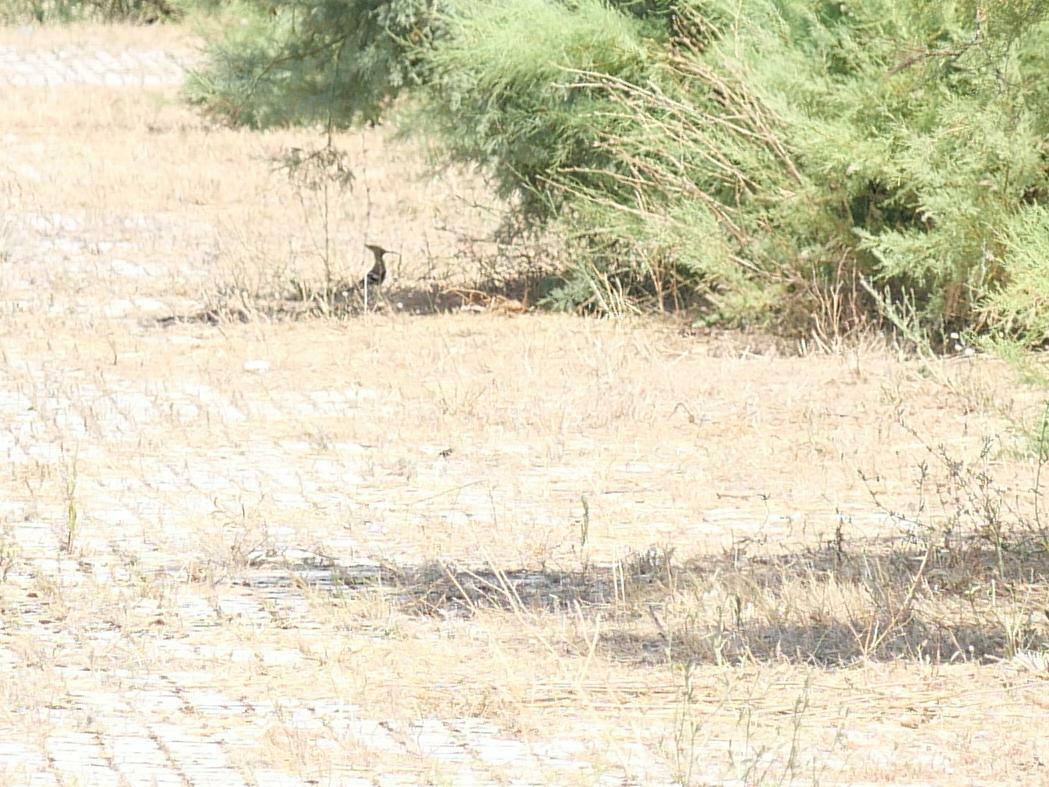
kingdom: Animalia
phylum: Chordata
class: Aves
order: Bucerotiformes
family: Upupidae
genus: Upupa
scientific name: Upupa epops
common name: Eurasian hoopoe
